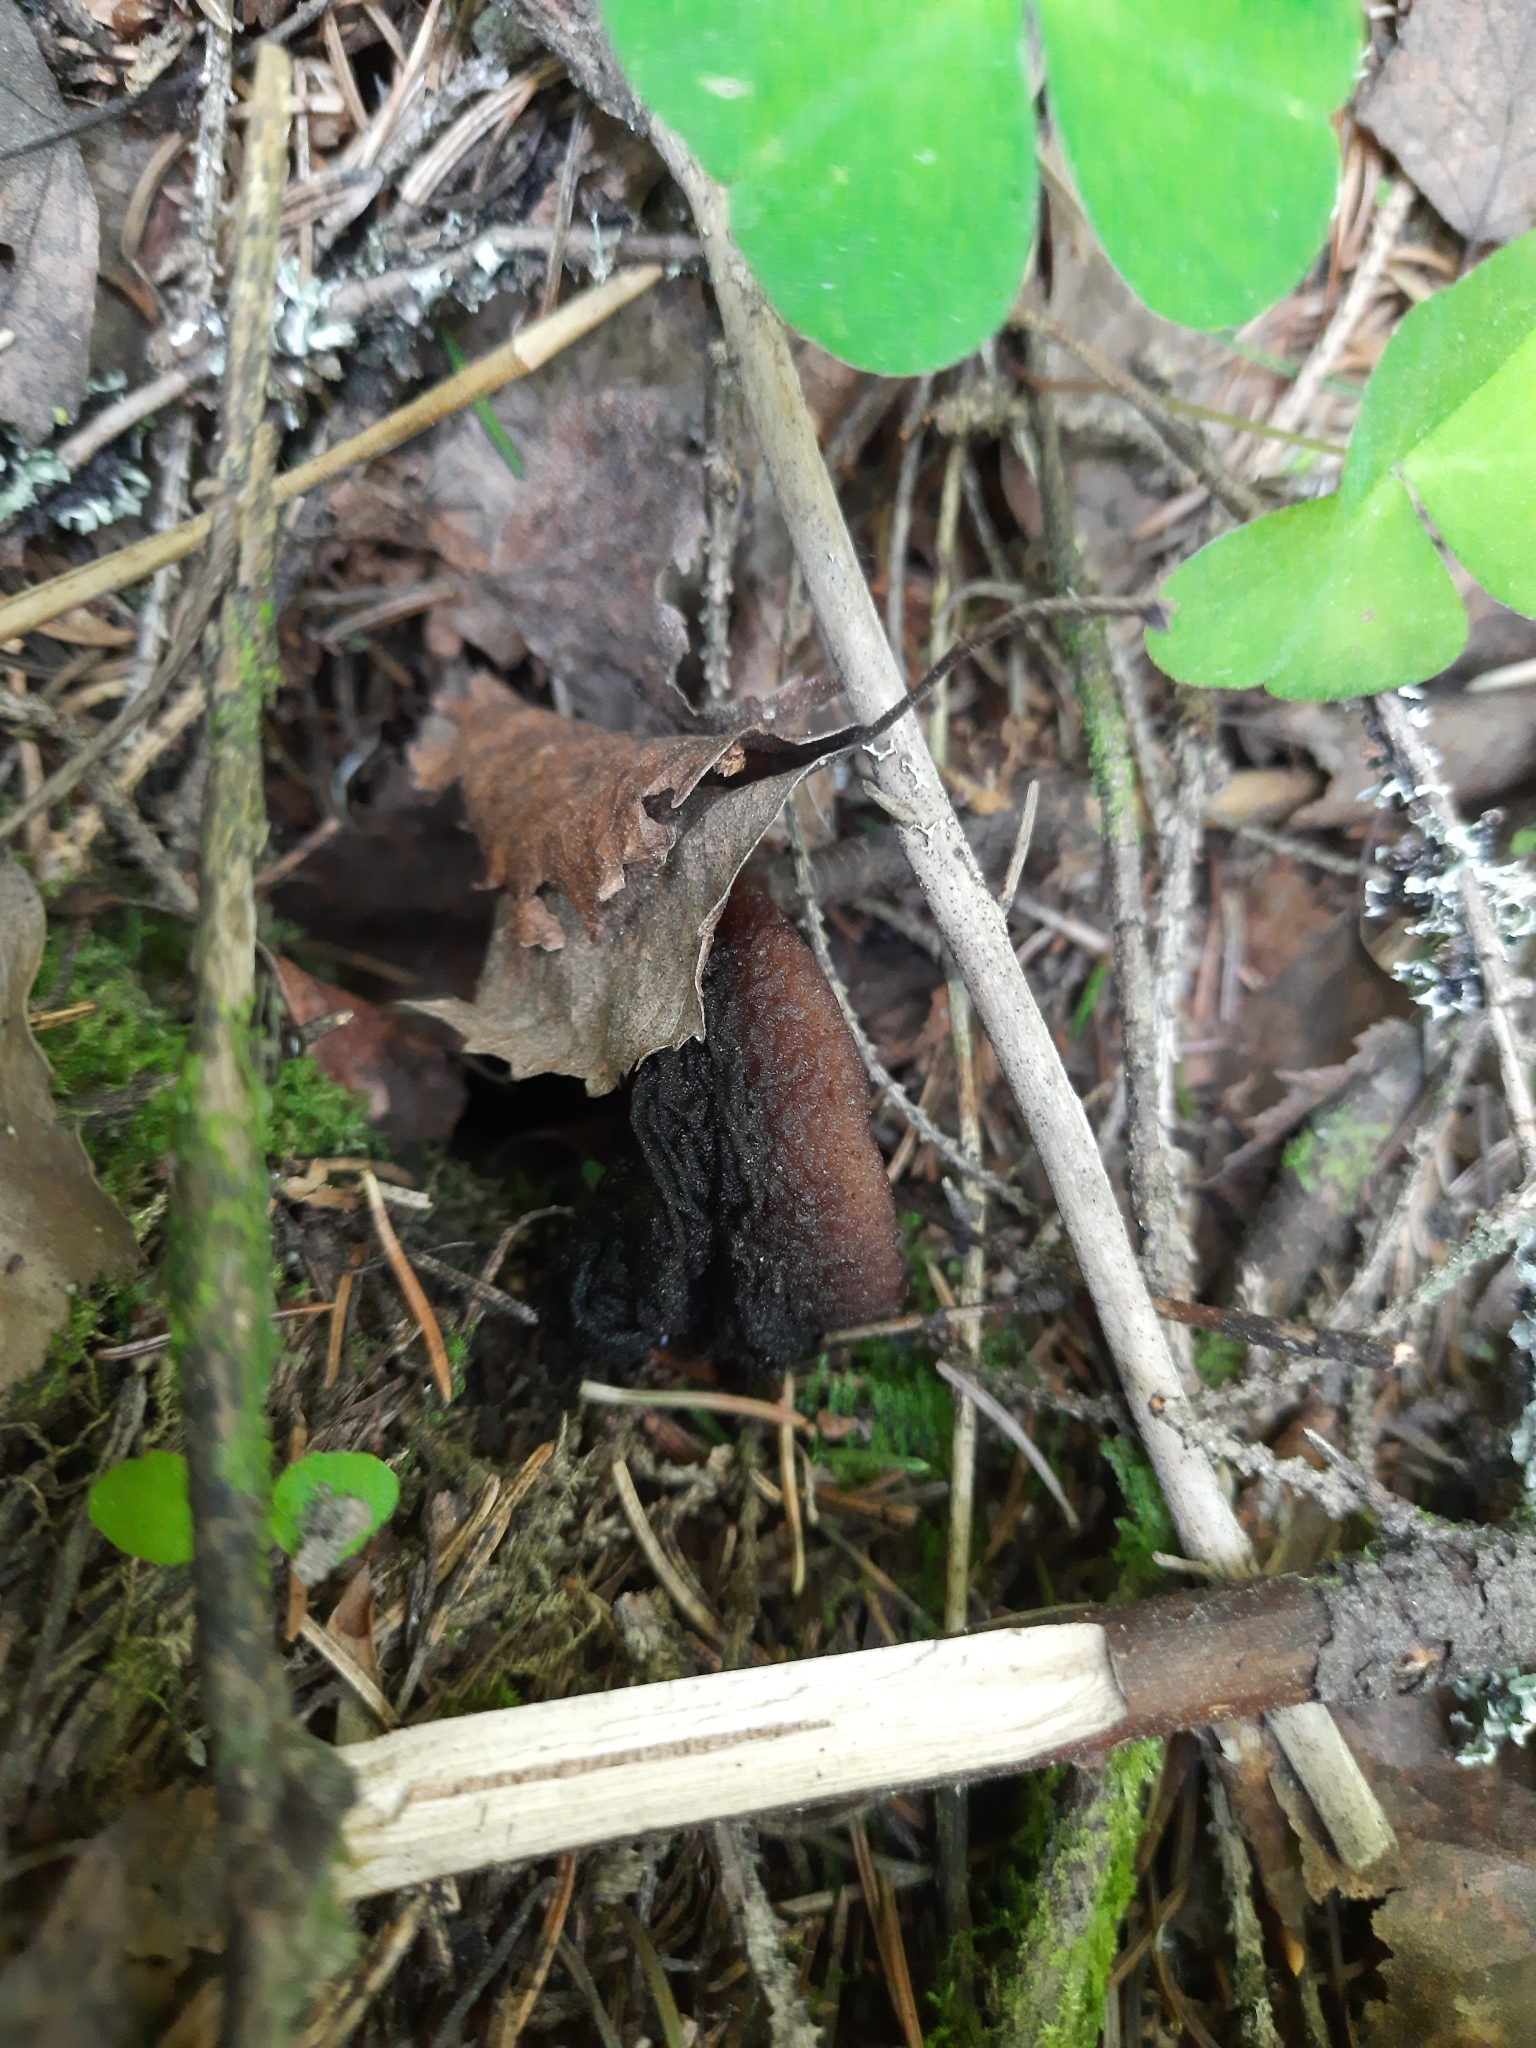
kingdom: Fungi
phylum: Ascomycota
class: Pezizomycetes
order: Pezizales
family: Sarcosomataceae
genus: Sarcosoma
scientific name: Sarcosoma globosum
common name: Charred-pancake cup
